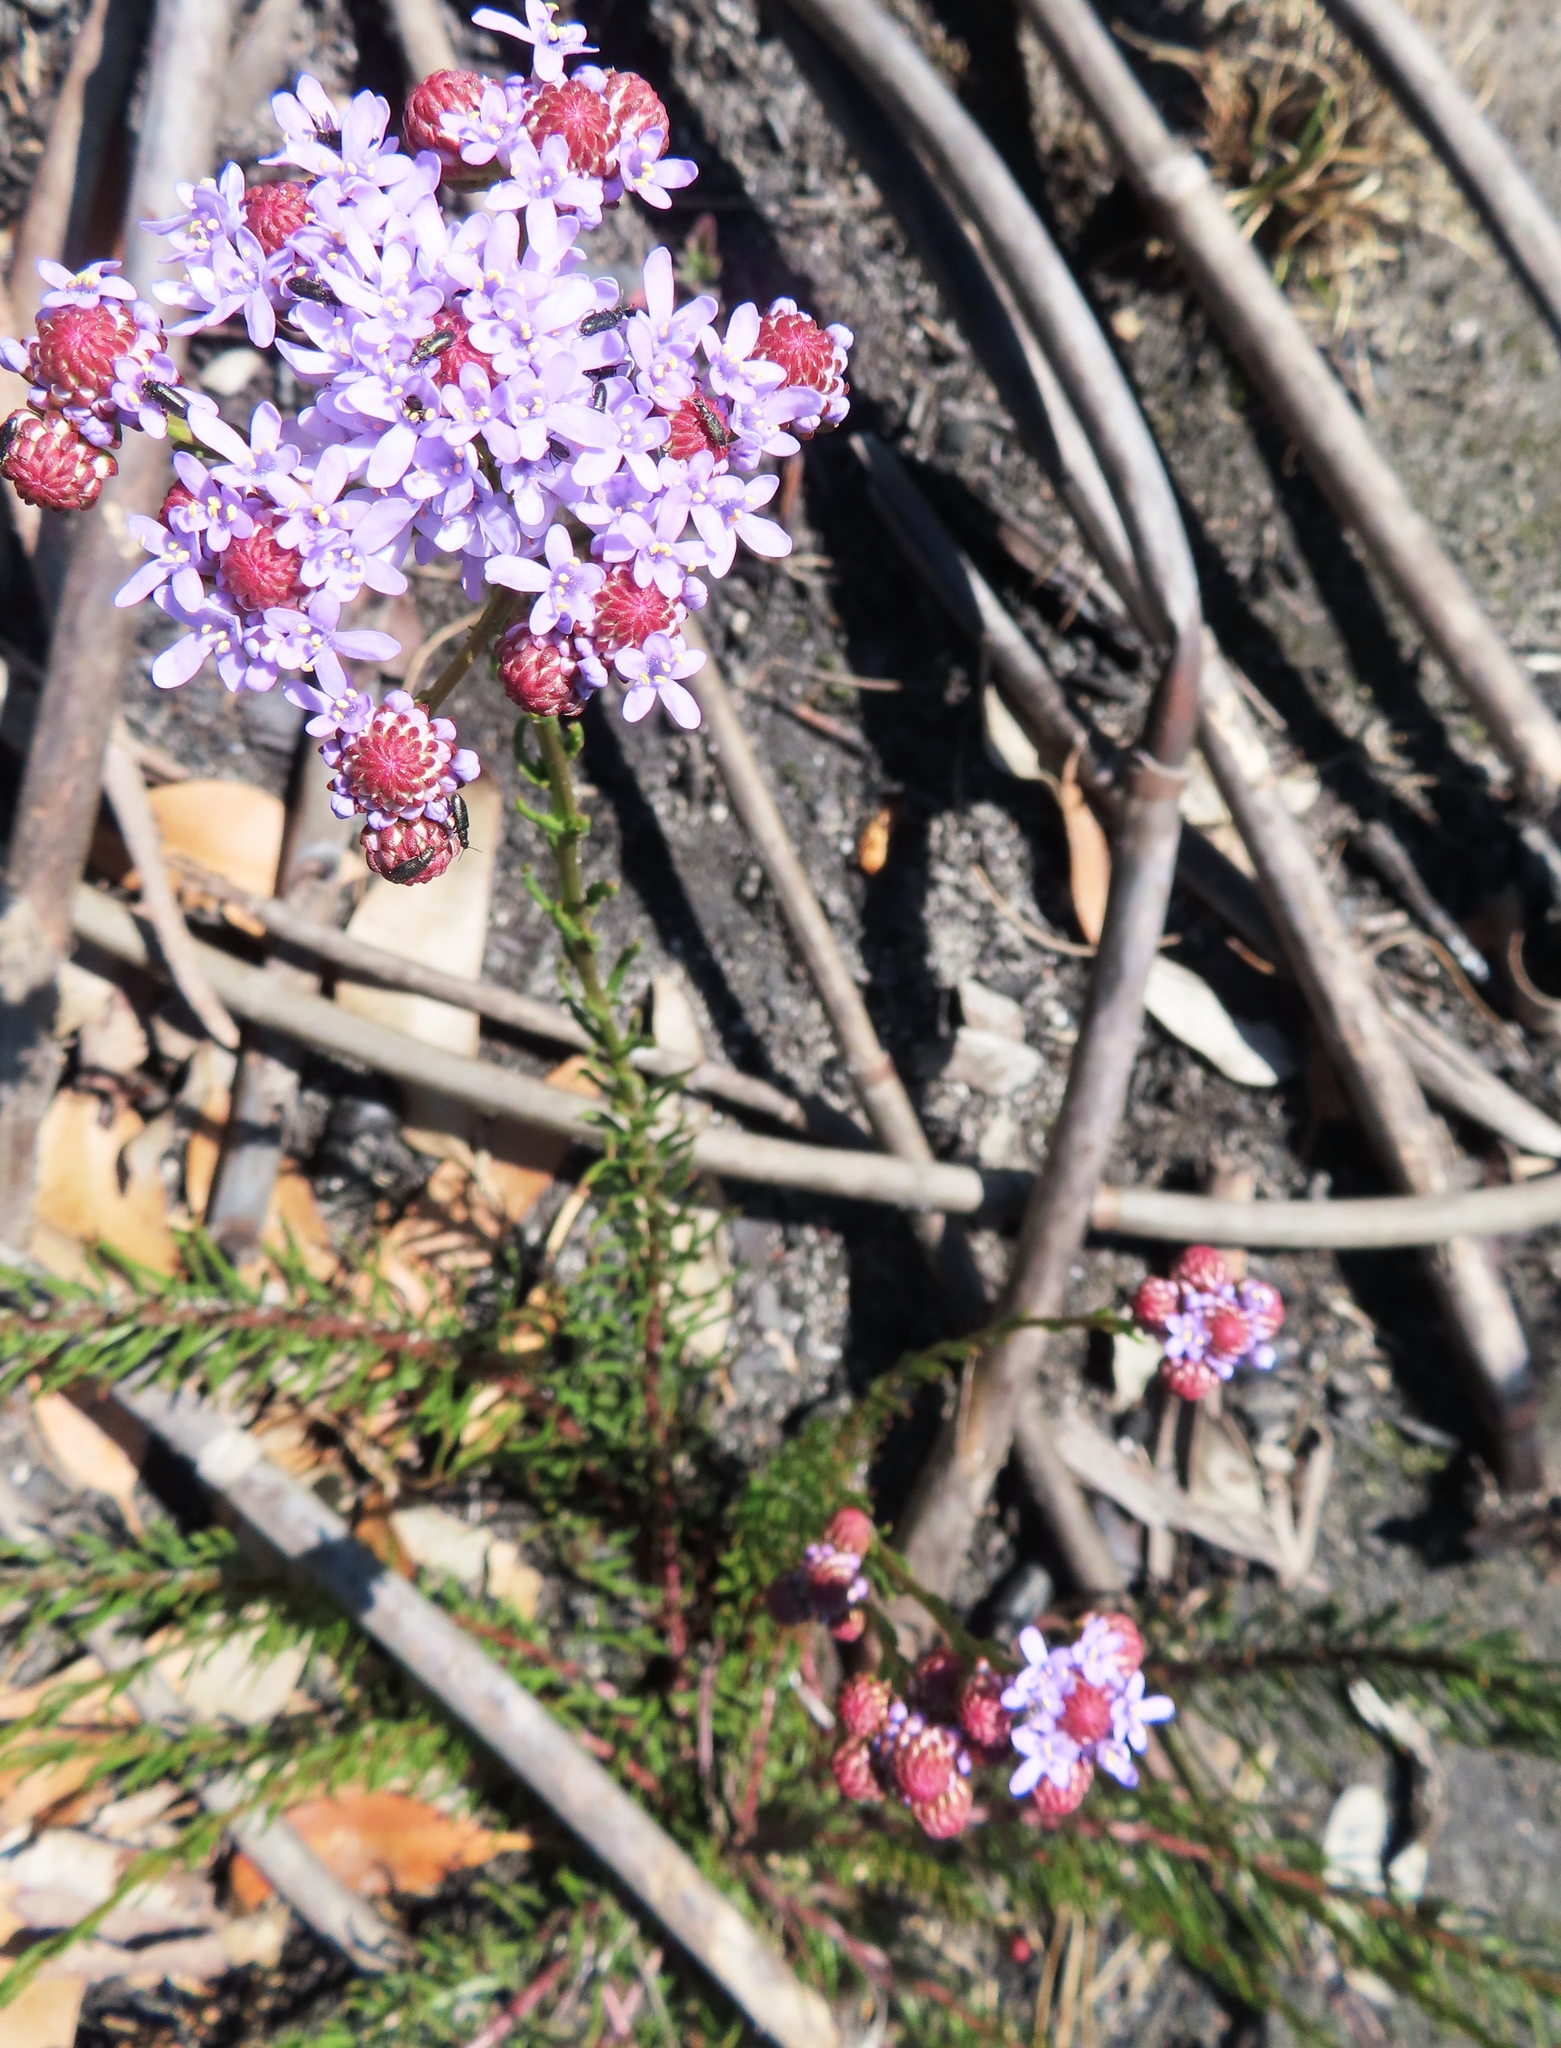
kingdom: Plantae
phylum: Tracheophyta
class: Magnoliopsida
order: Lamiales
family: Scrophulariaceae
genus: Pseudoselago
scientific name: Pseudoselago spuria
